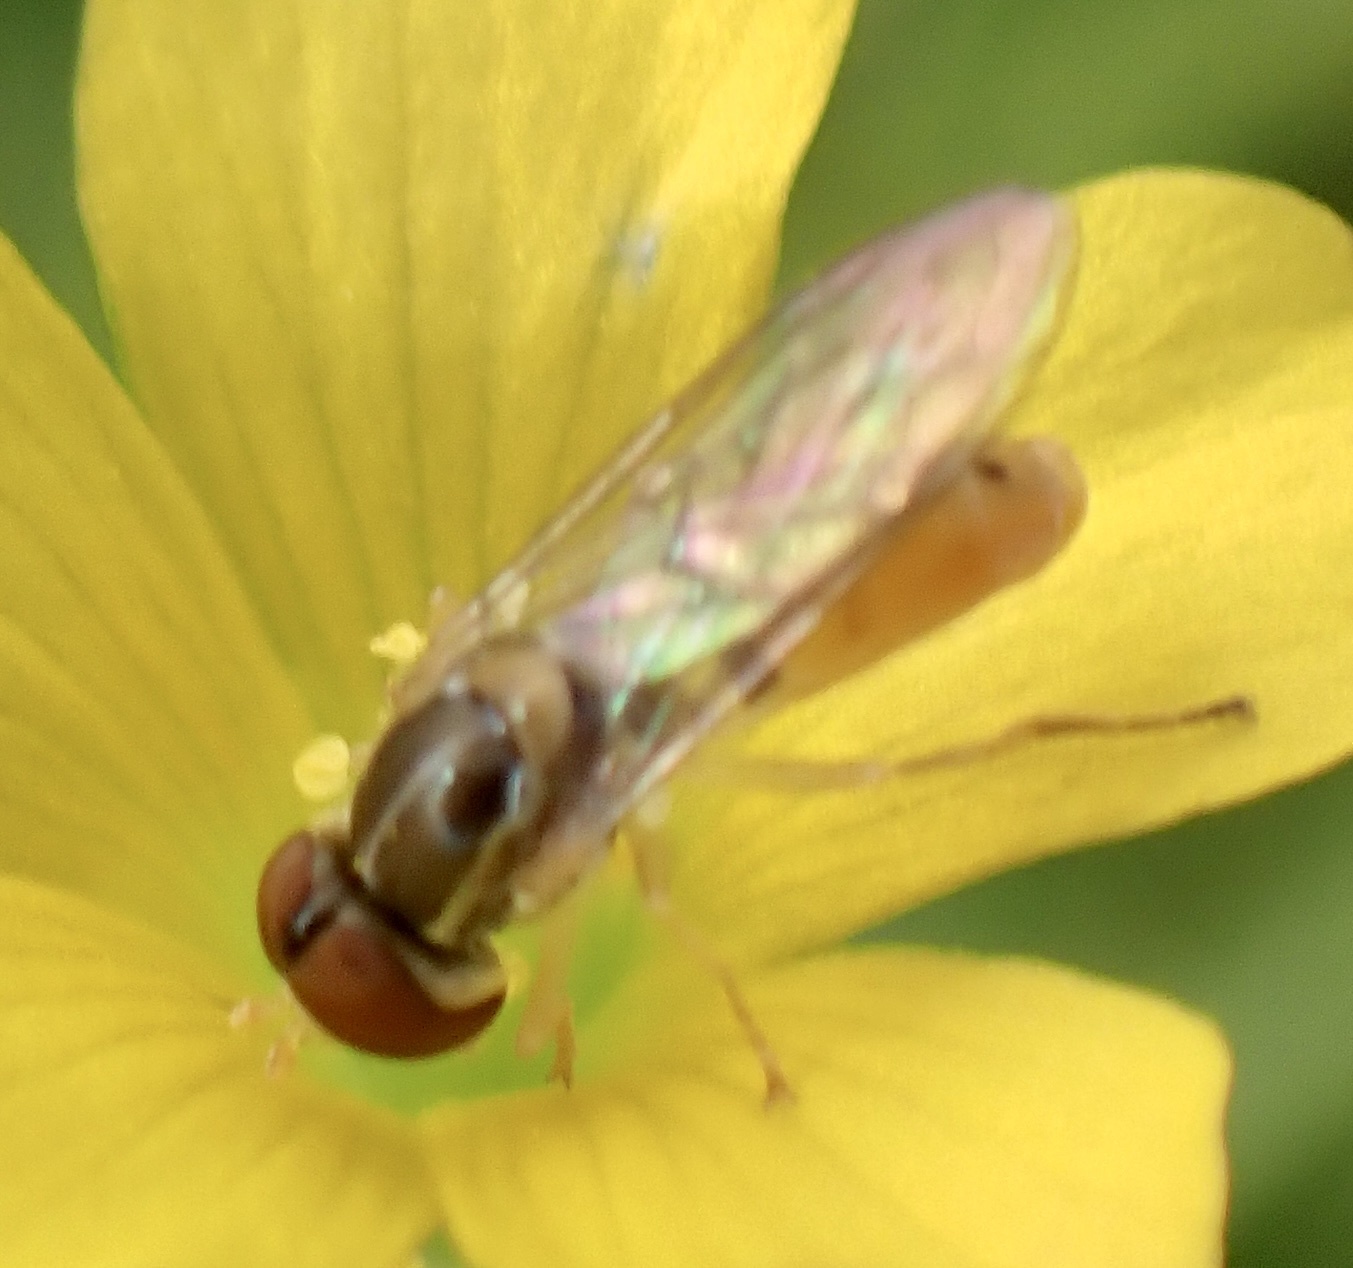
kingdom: Animalia
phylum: Arthropoda
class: Insecta
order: Diptera
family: Syrphidae
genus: Toxomerus
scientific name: Toxomerus marginatus
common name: Syrphid fly
